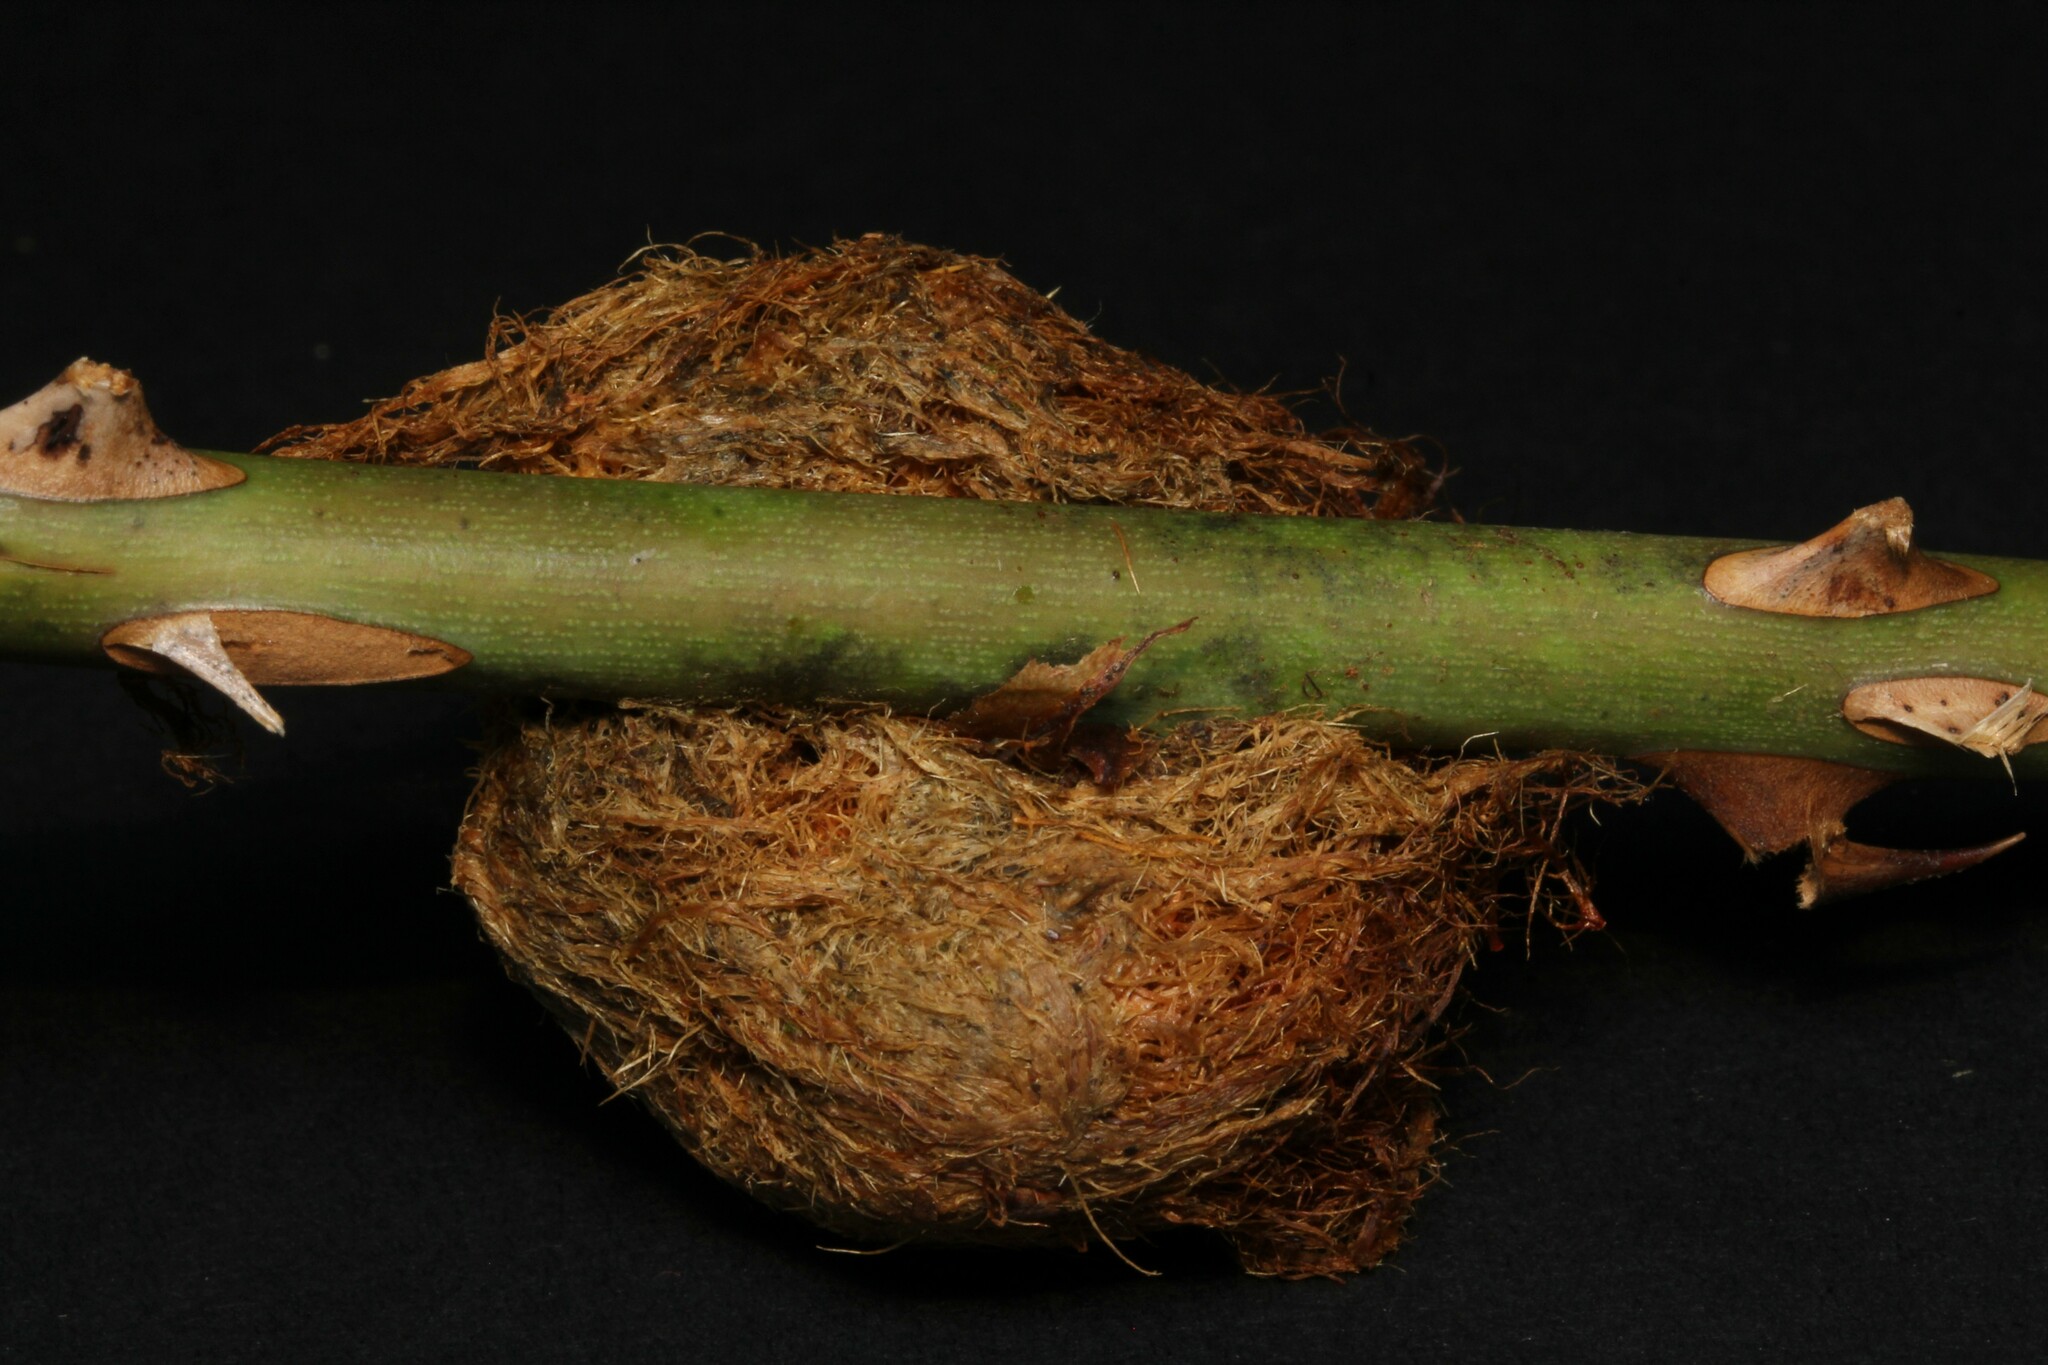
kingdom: Animalia
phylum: Arthropoda
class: Insecta
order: Hymenoptera
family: Cynipidae
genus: Diplolepis
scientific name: Diplolepis rosae
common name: Bedeguar gall
